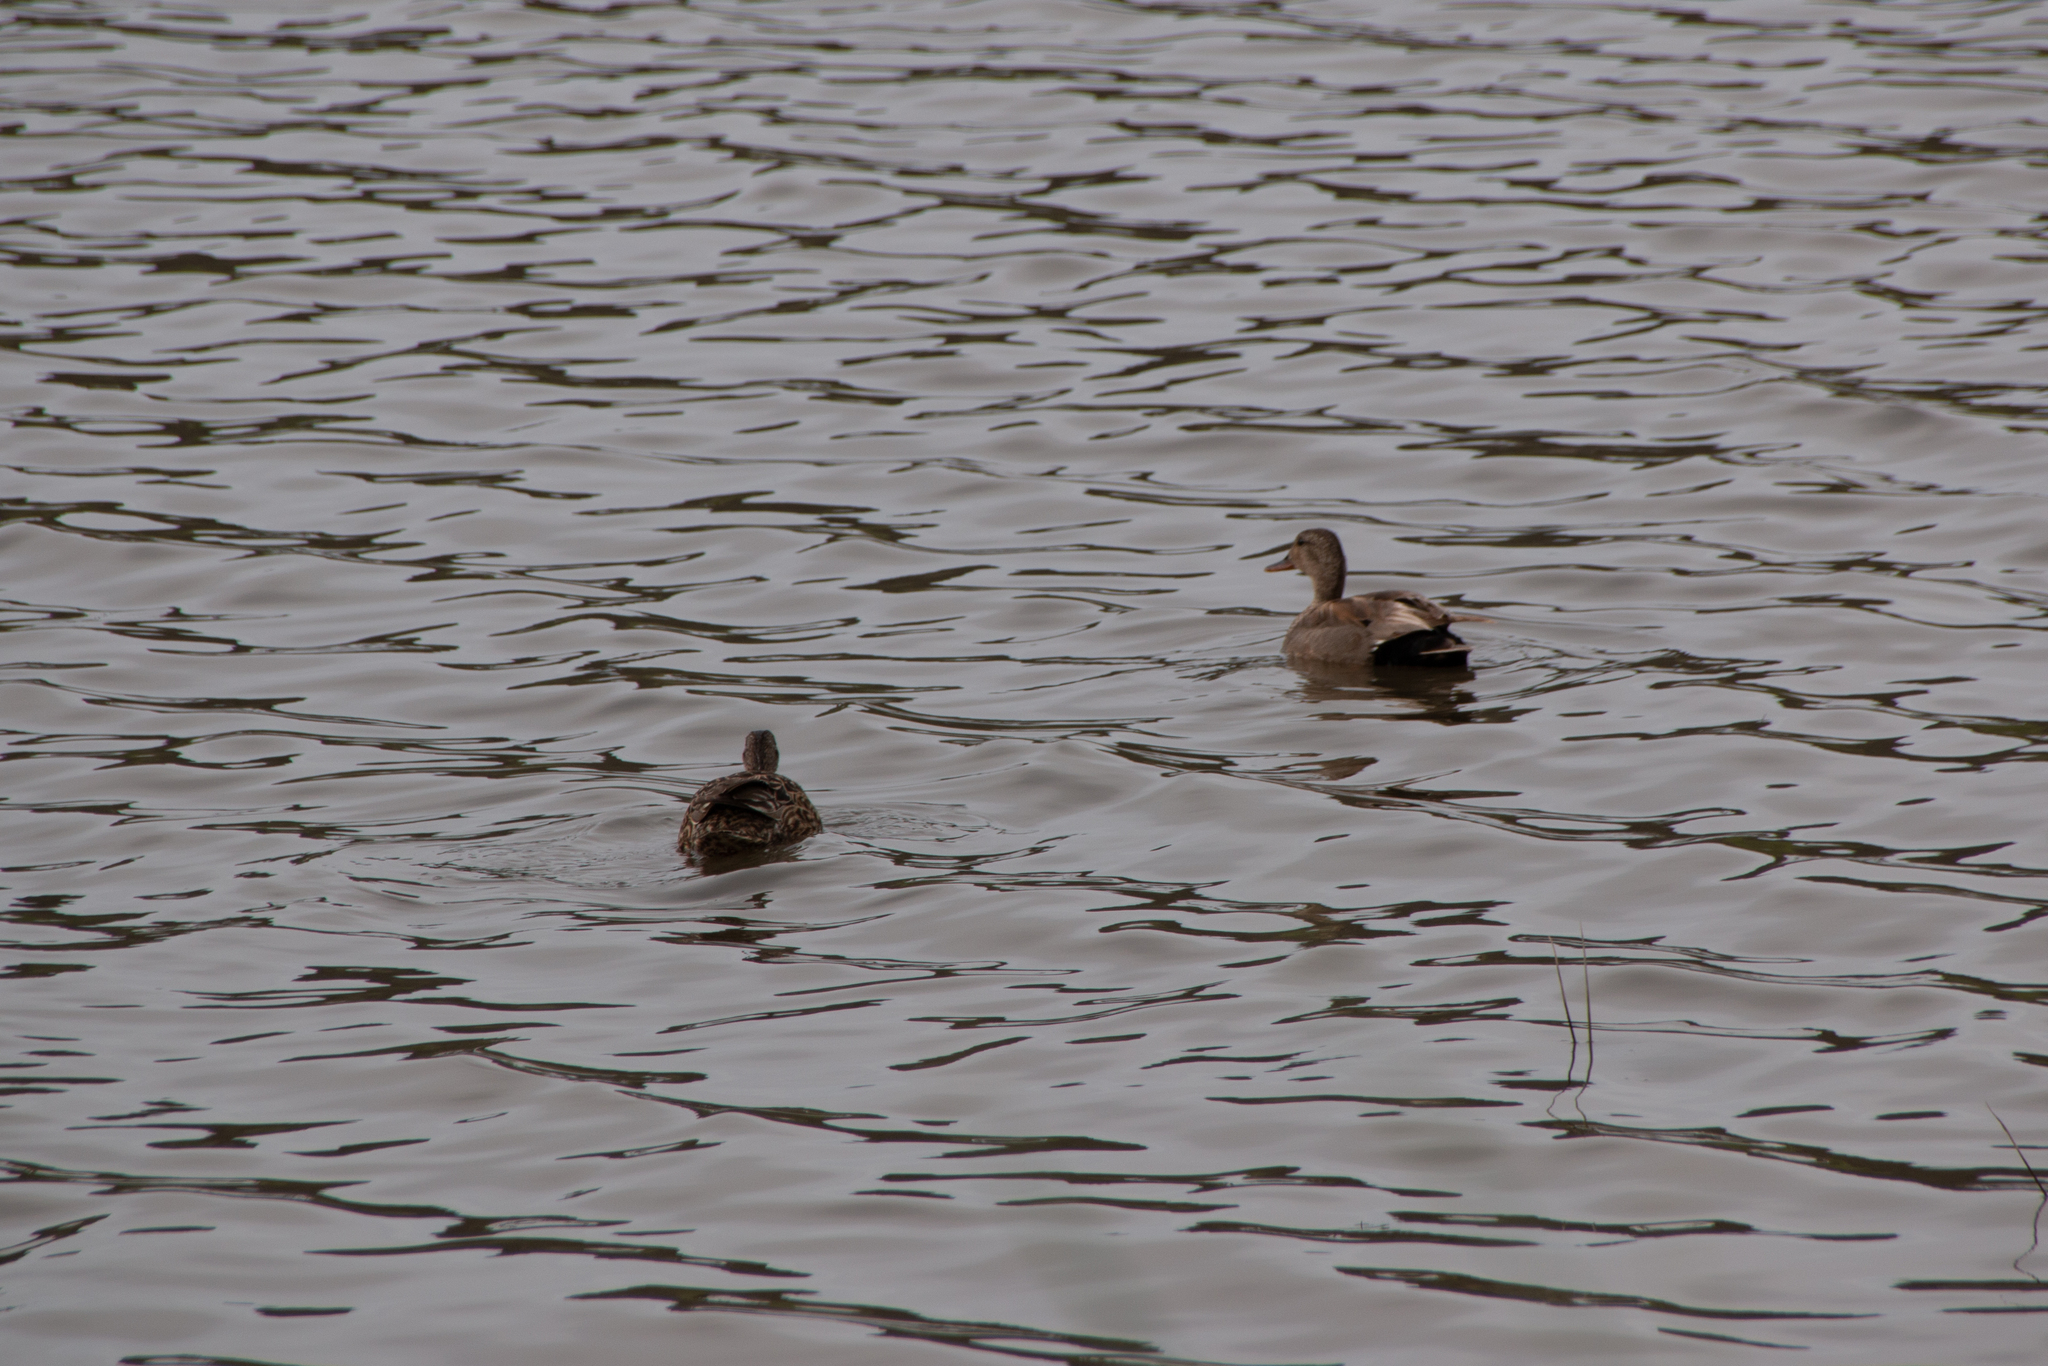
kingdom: Animalia
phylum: Chordata
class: Aves
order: Anseriformes
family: Anatidae
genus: Mareca
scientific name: Mareca strepera
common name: Gadwall
